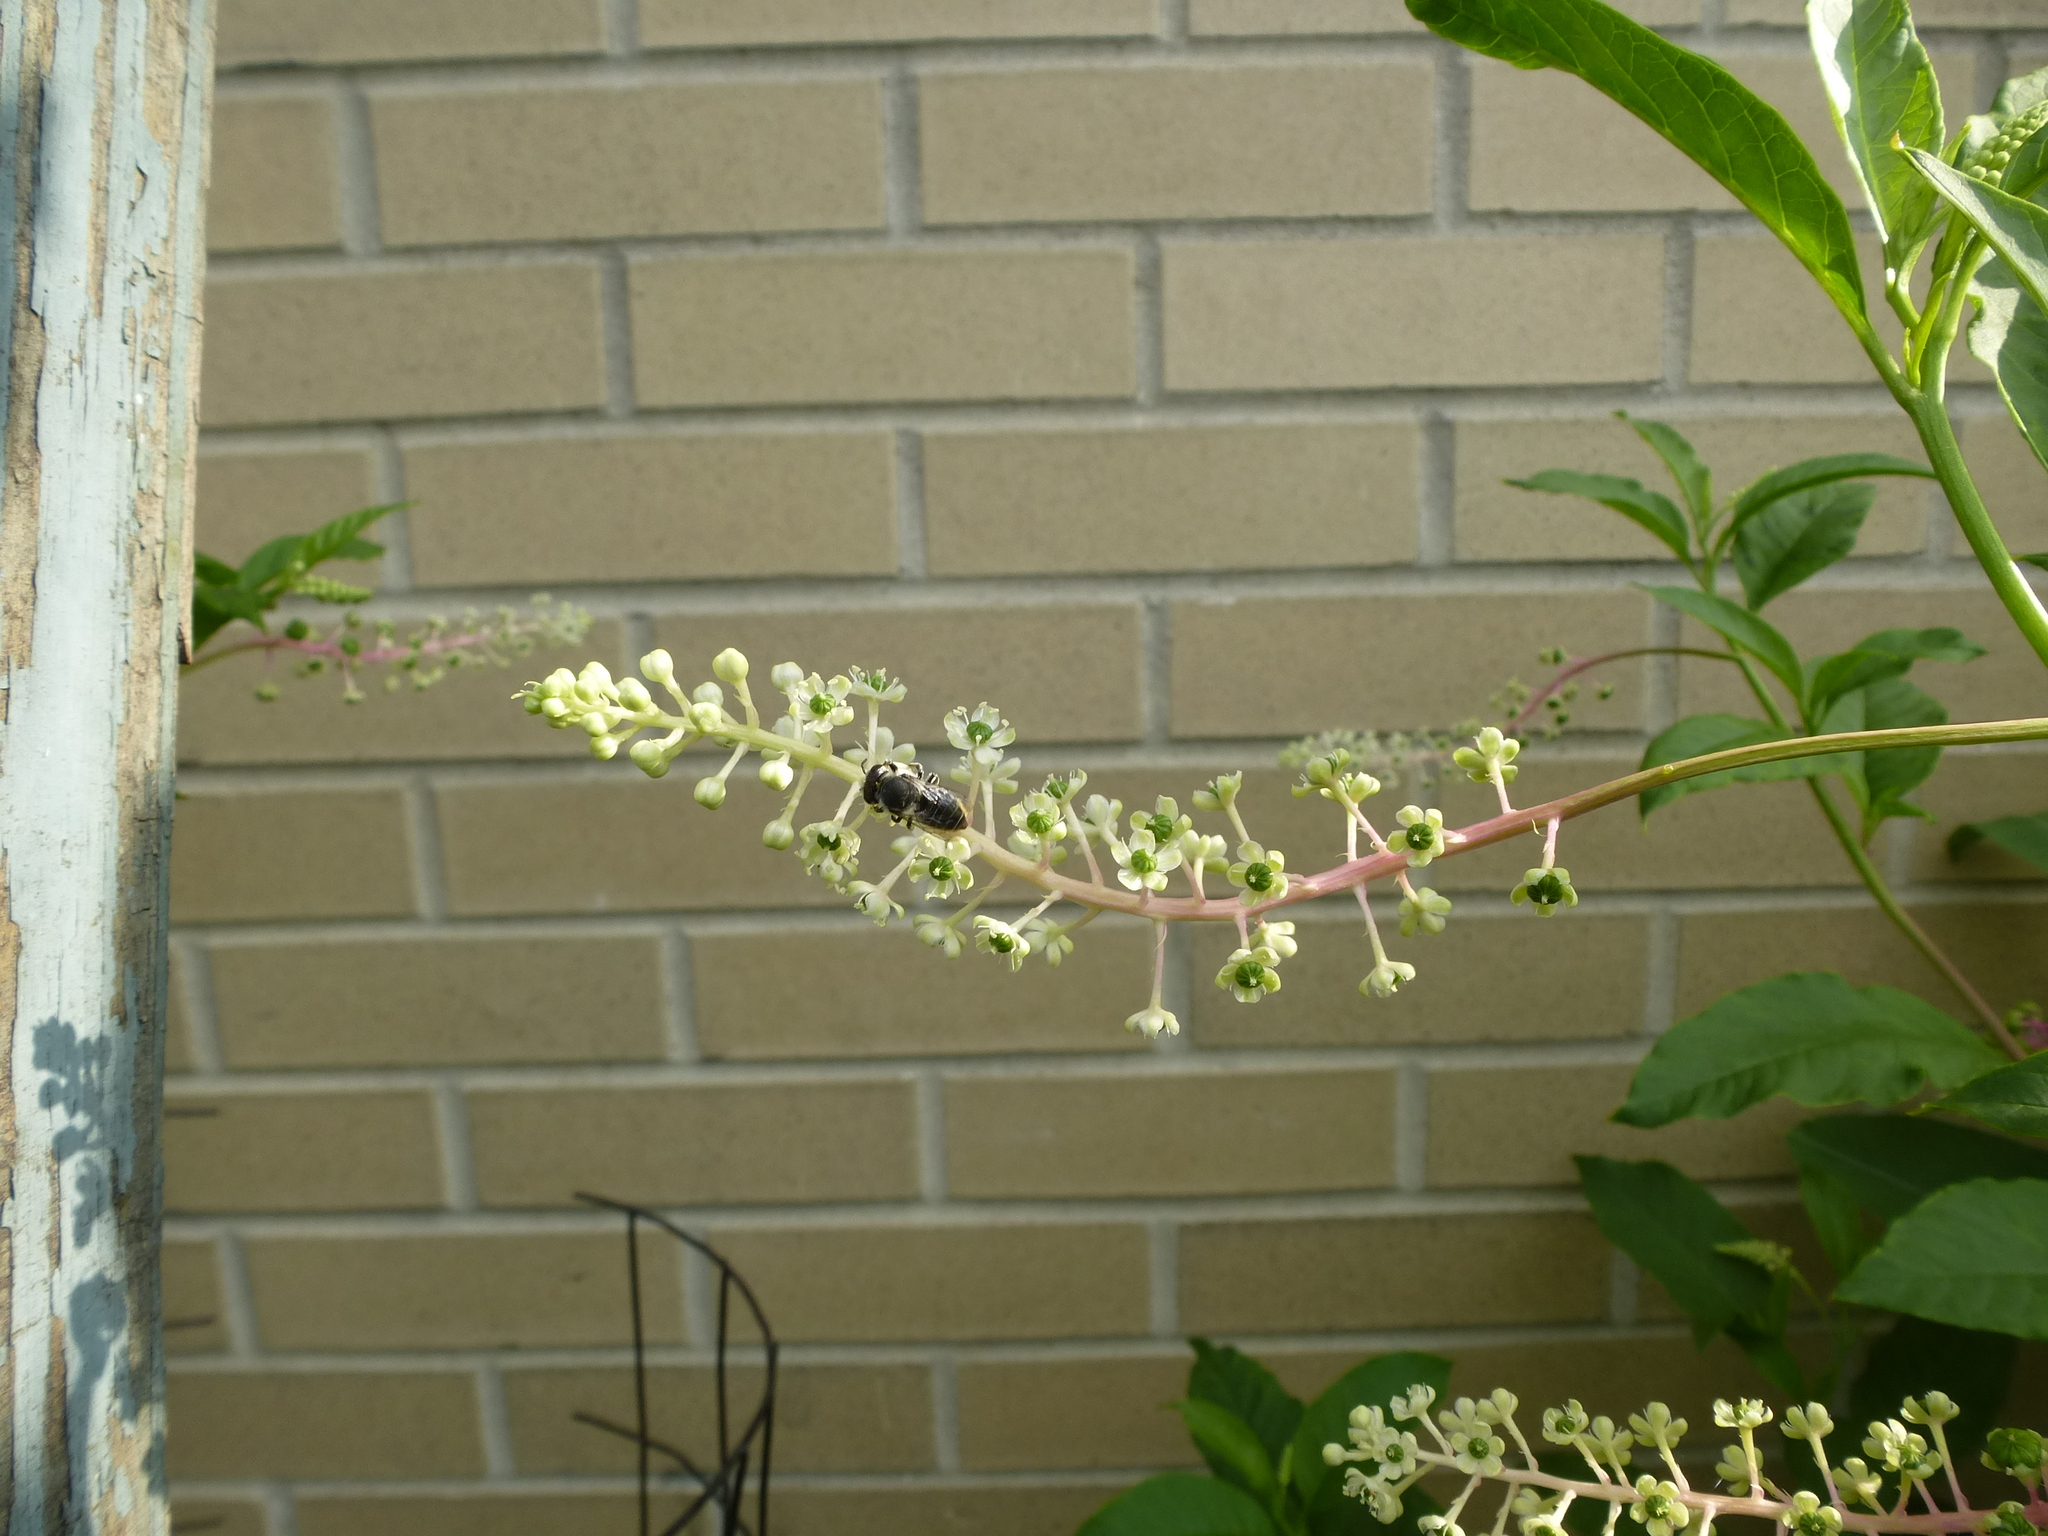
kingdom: Animalia
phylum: Arthropoda
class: Insecta
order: Hymenoptera
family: Megachilidae
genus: Megachile
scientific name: Megachile
